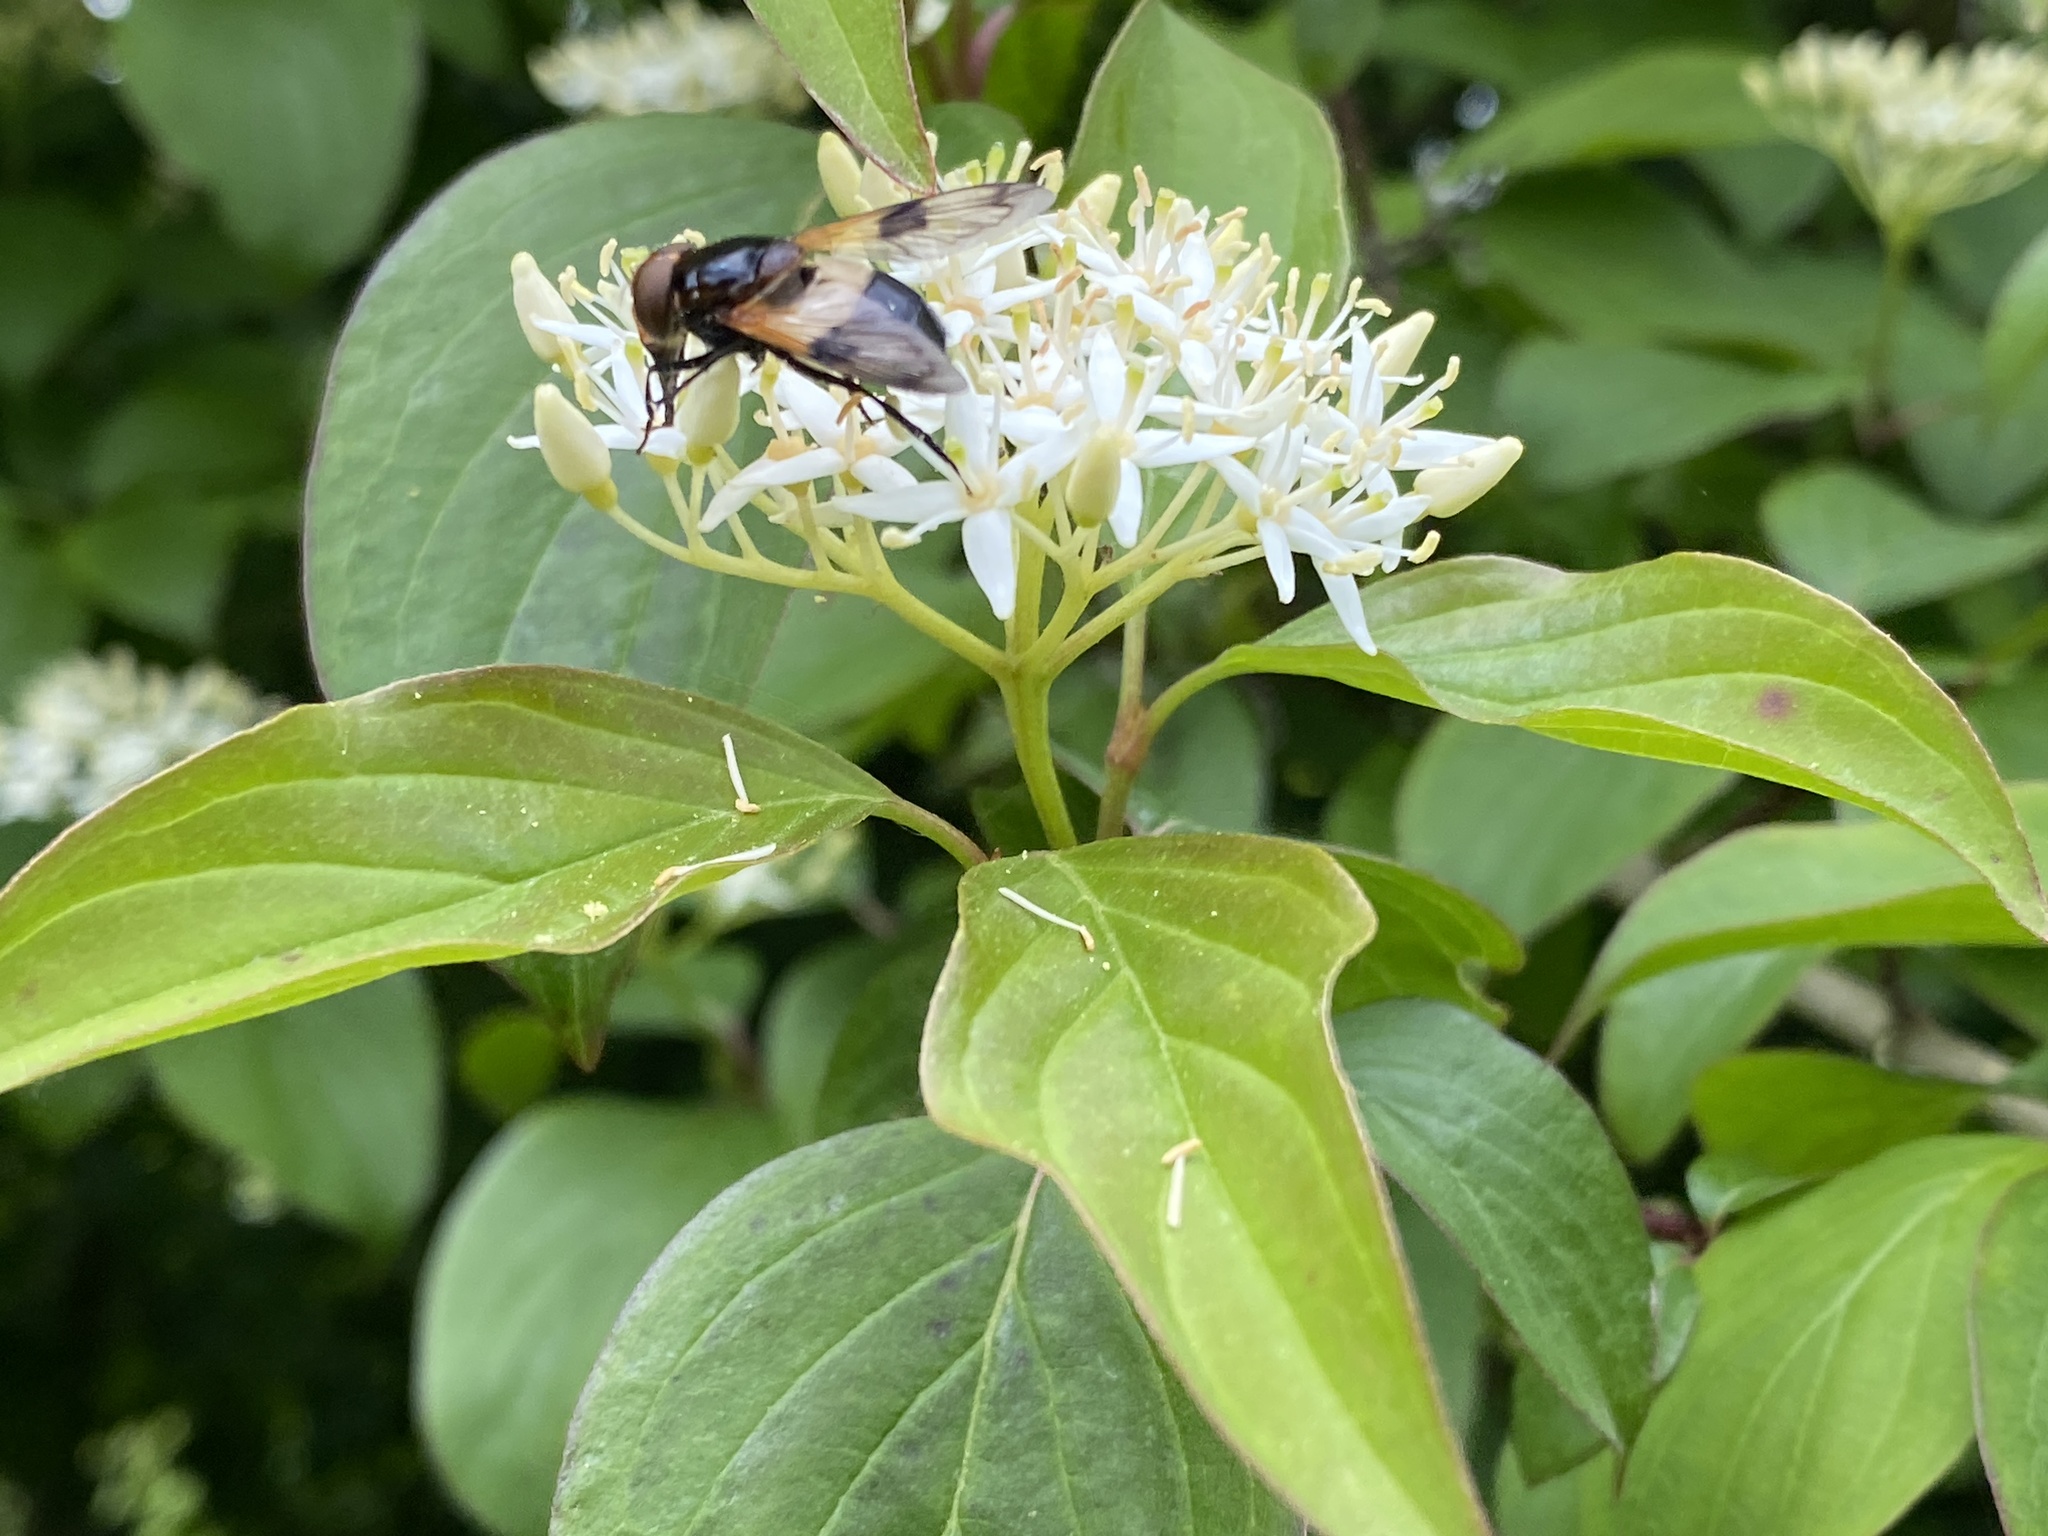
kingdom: Animalia
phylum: Arthropoda
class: Insecta
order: Diptera
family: Syrphidae
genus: Volucella
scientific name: Volucella pellucens
